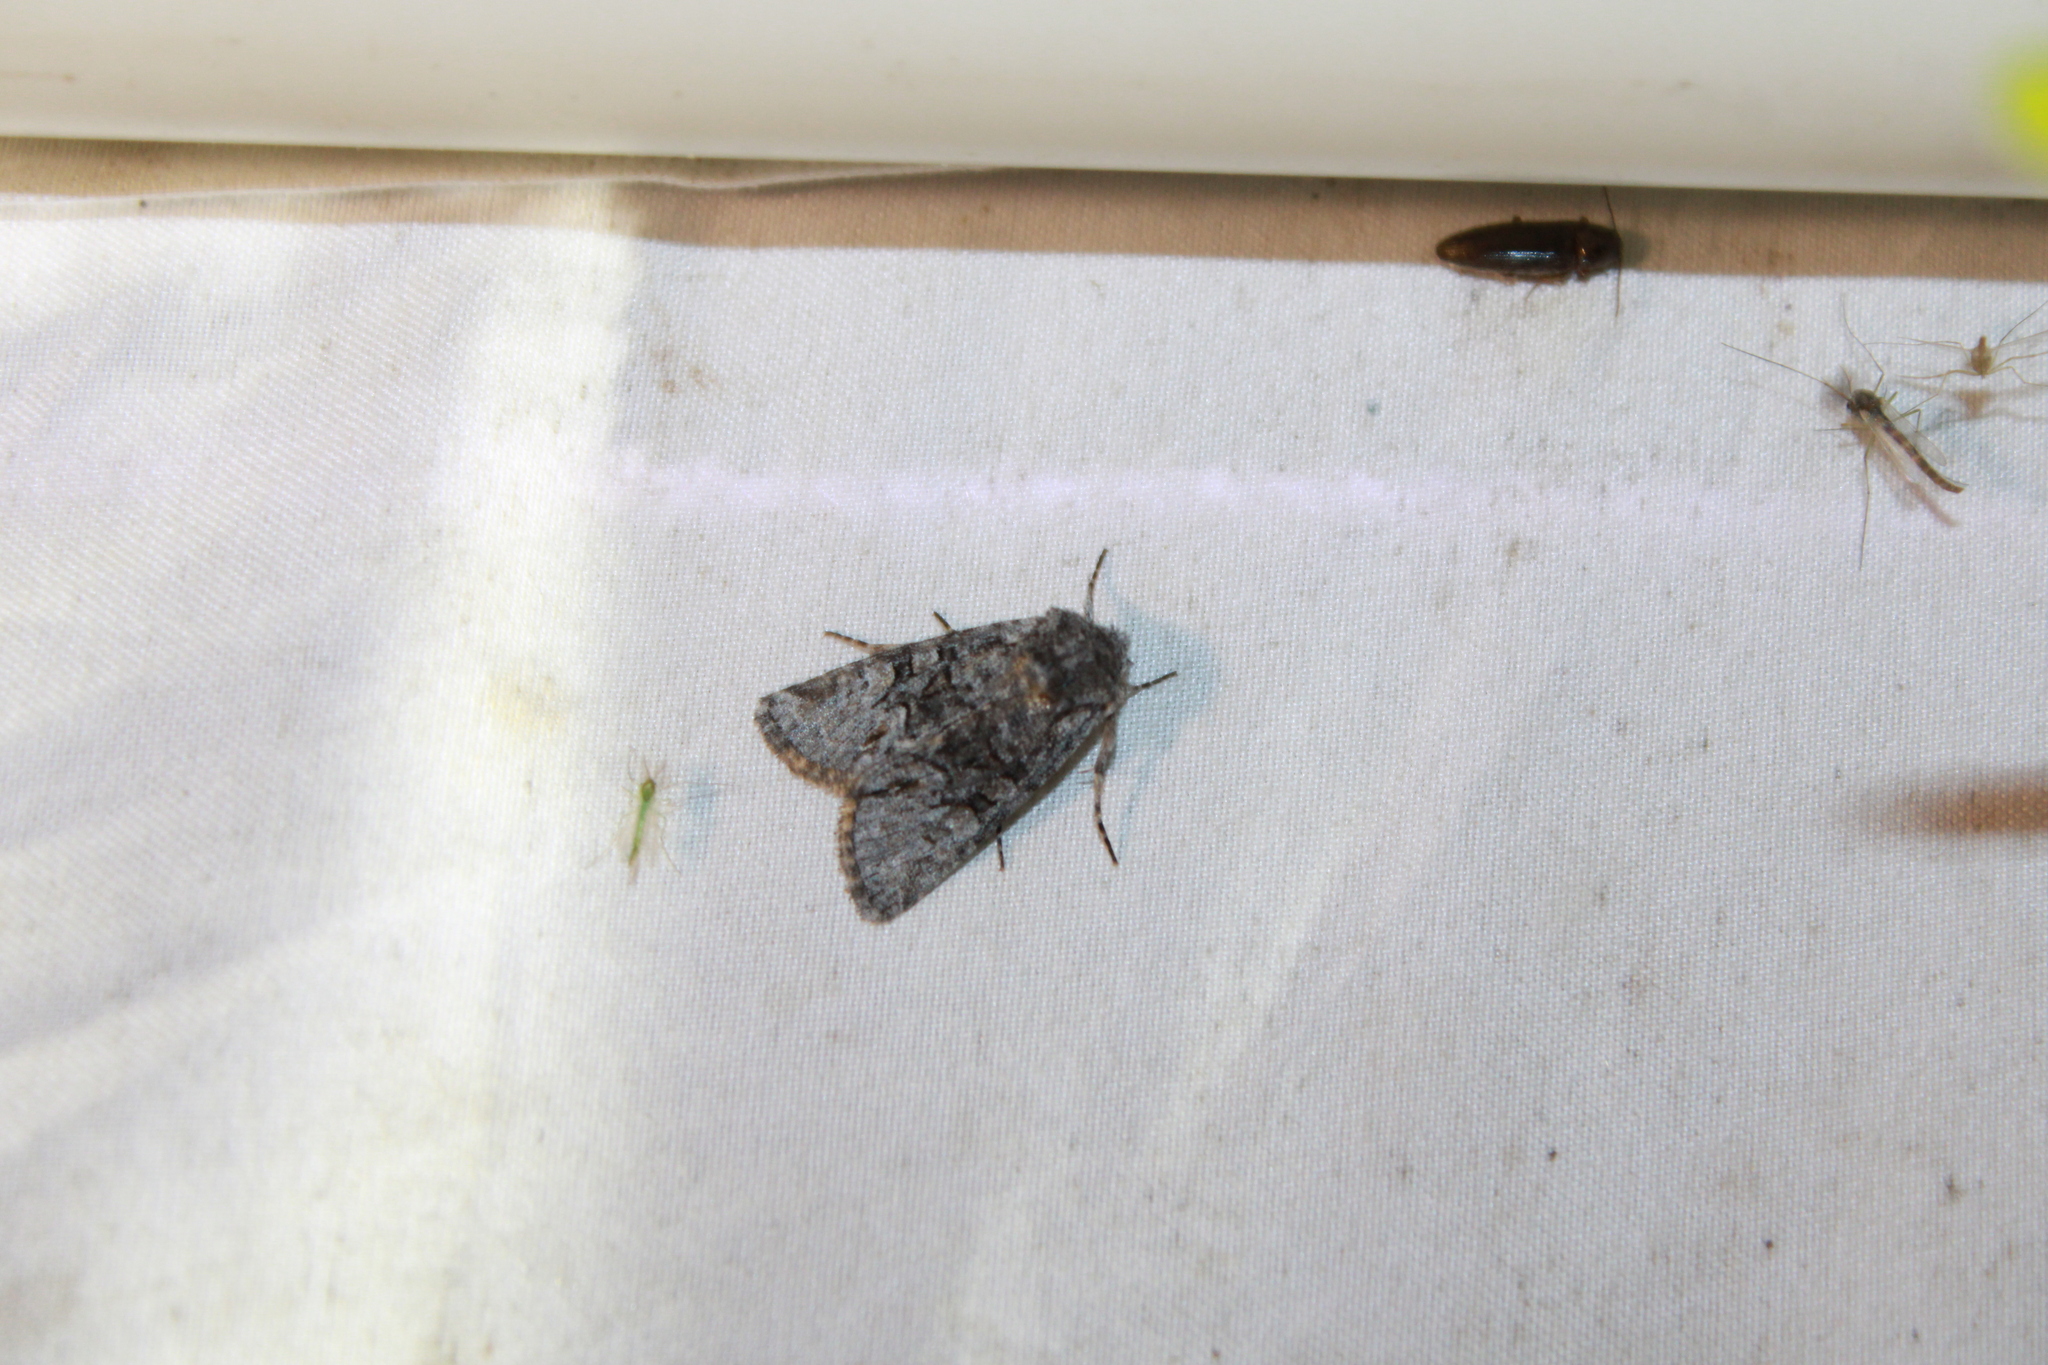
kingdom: Animalia
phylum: Arthropoda
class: Insecta
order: Lepidoptera
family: Noctuidae
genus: Lacinipolia
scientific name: Lacinipolia anguina
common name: Snaky arches moth
